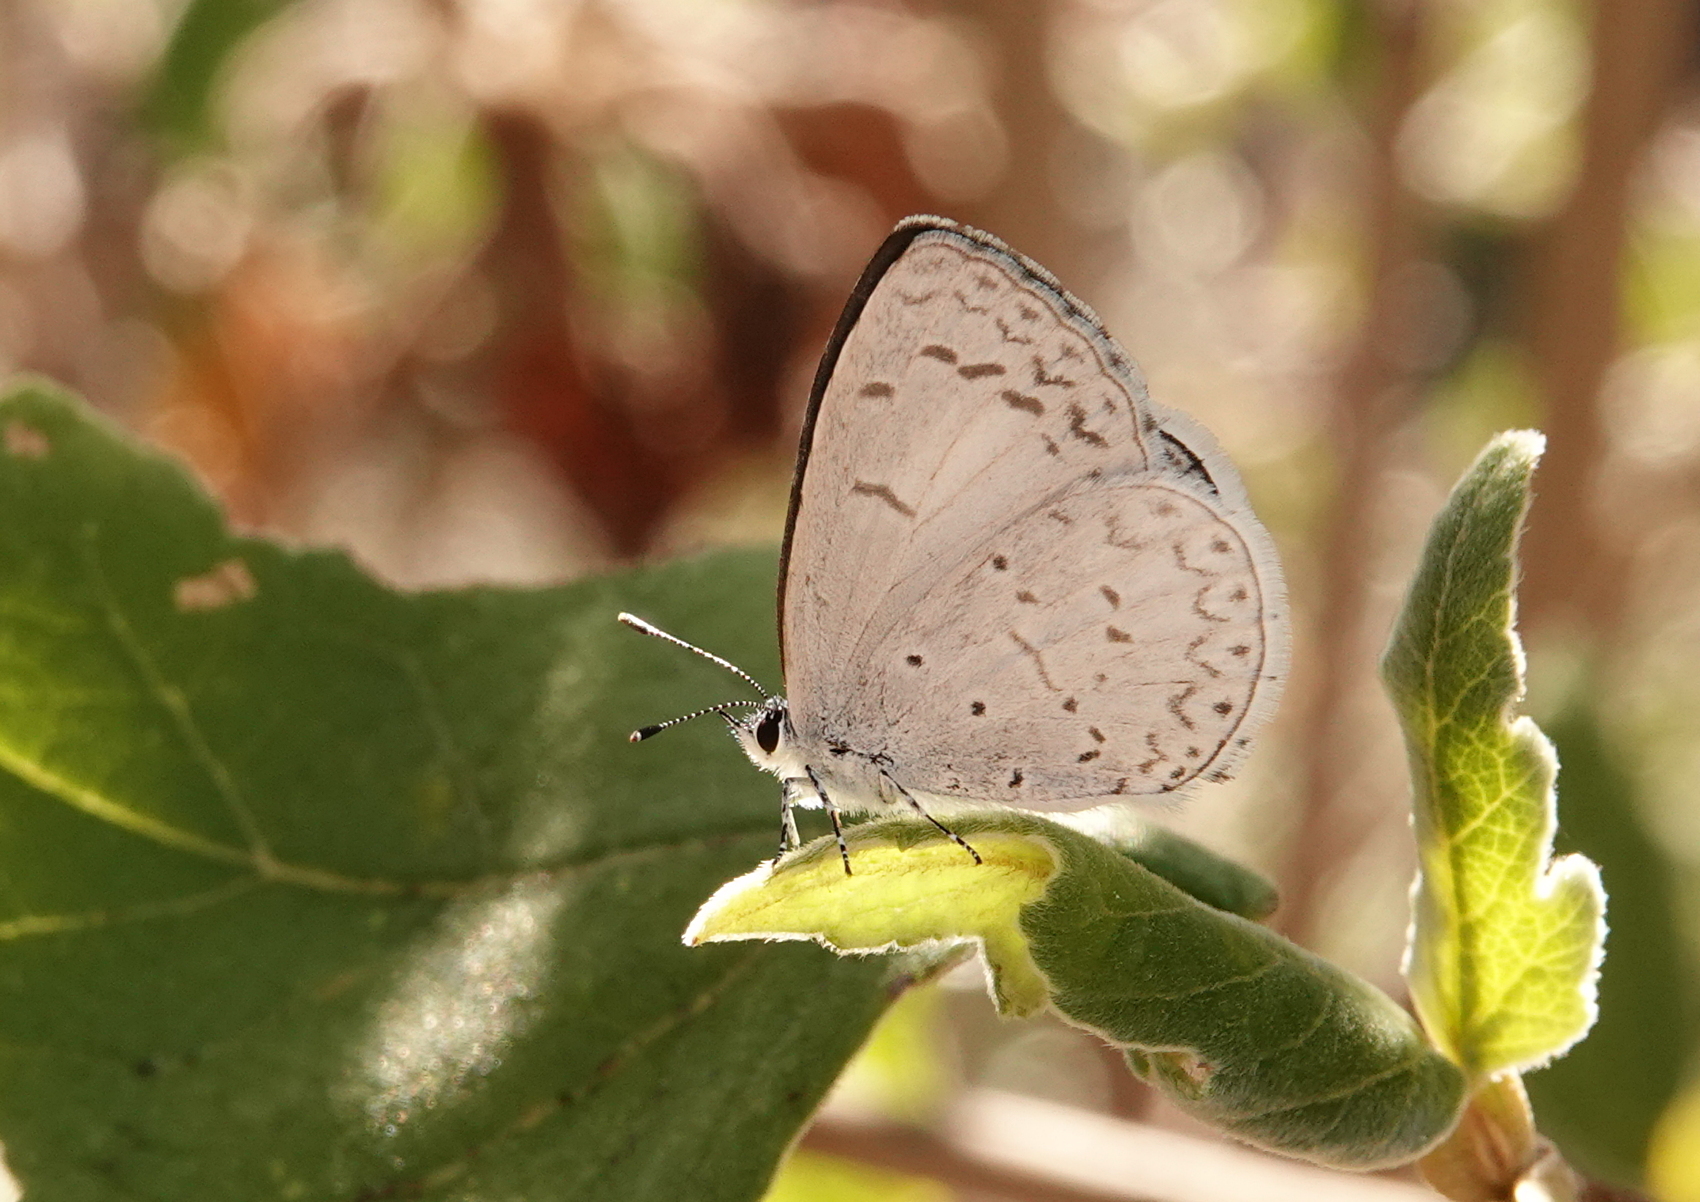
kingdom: Animalia
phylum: Arthropoda
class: Insecta
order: Lepidoptera
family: Lycaenidae
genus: Celastrina
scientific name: Celastrina ladon
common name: Spring azure
